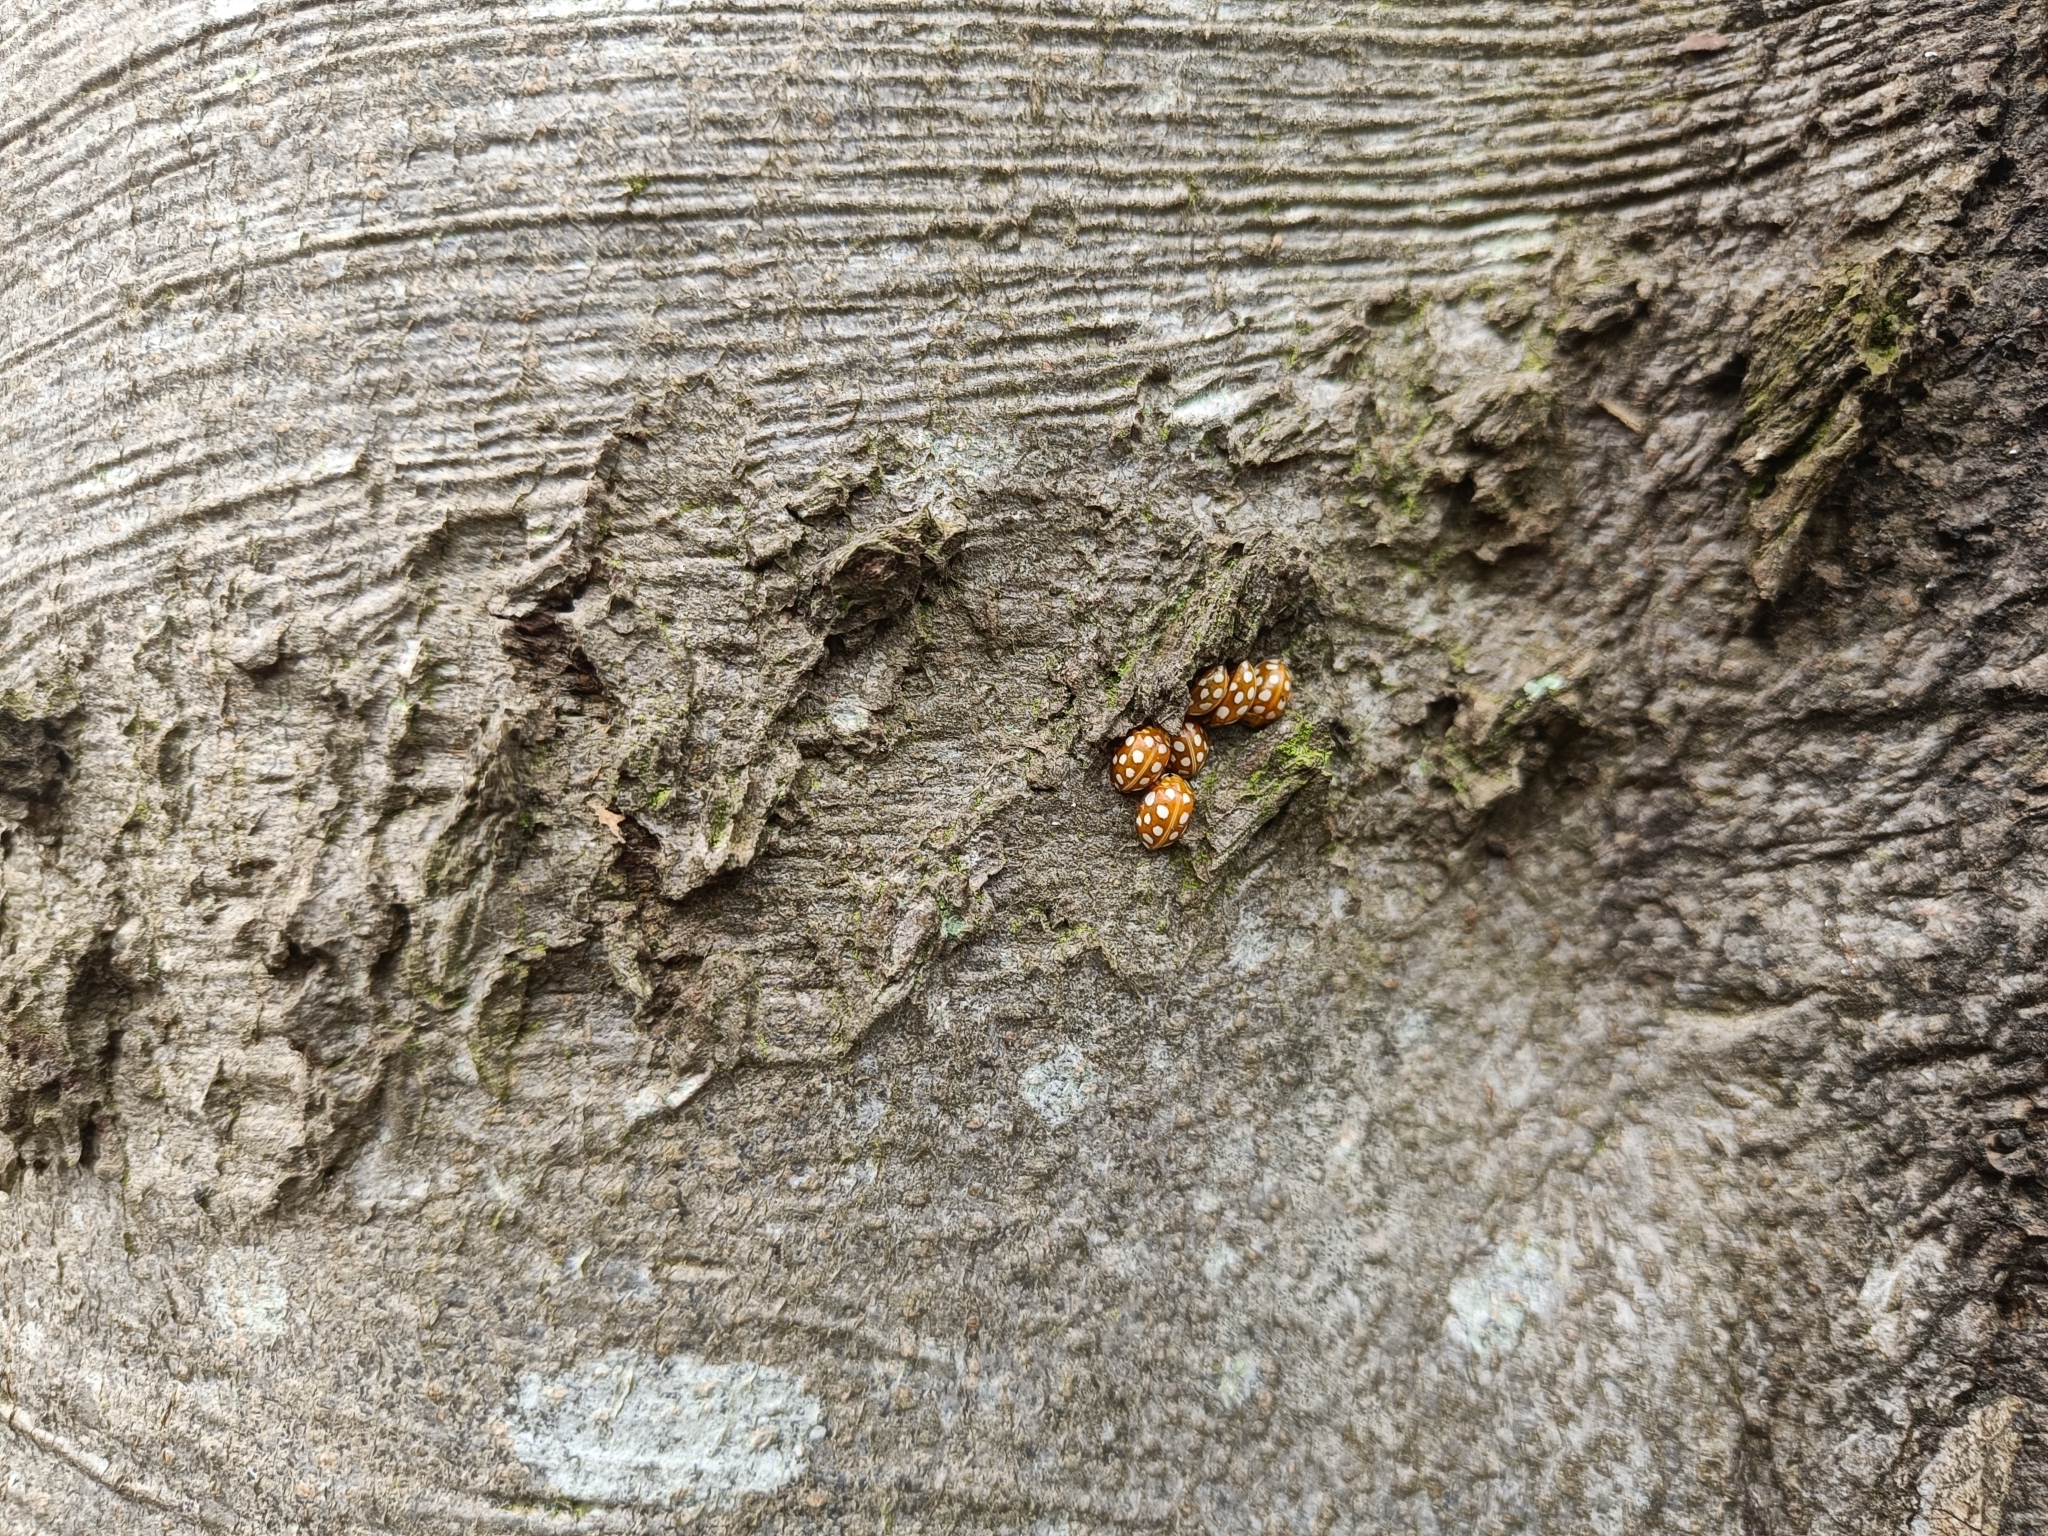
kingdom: Animalia
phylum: Arthropoda
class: Insecta
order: Coleoptera
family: Coccinellidae
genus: Halyzia
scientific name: Halyzia sedecimguttata
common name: Orange ladybird
